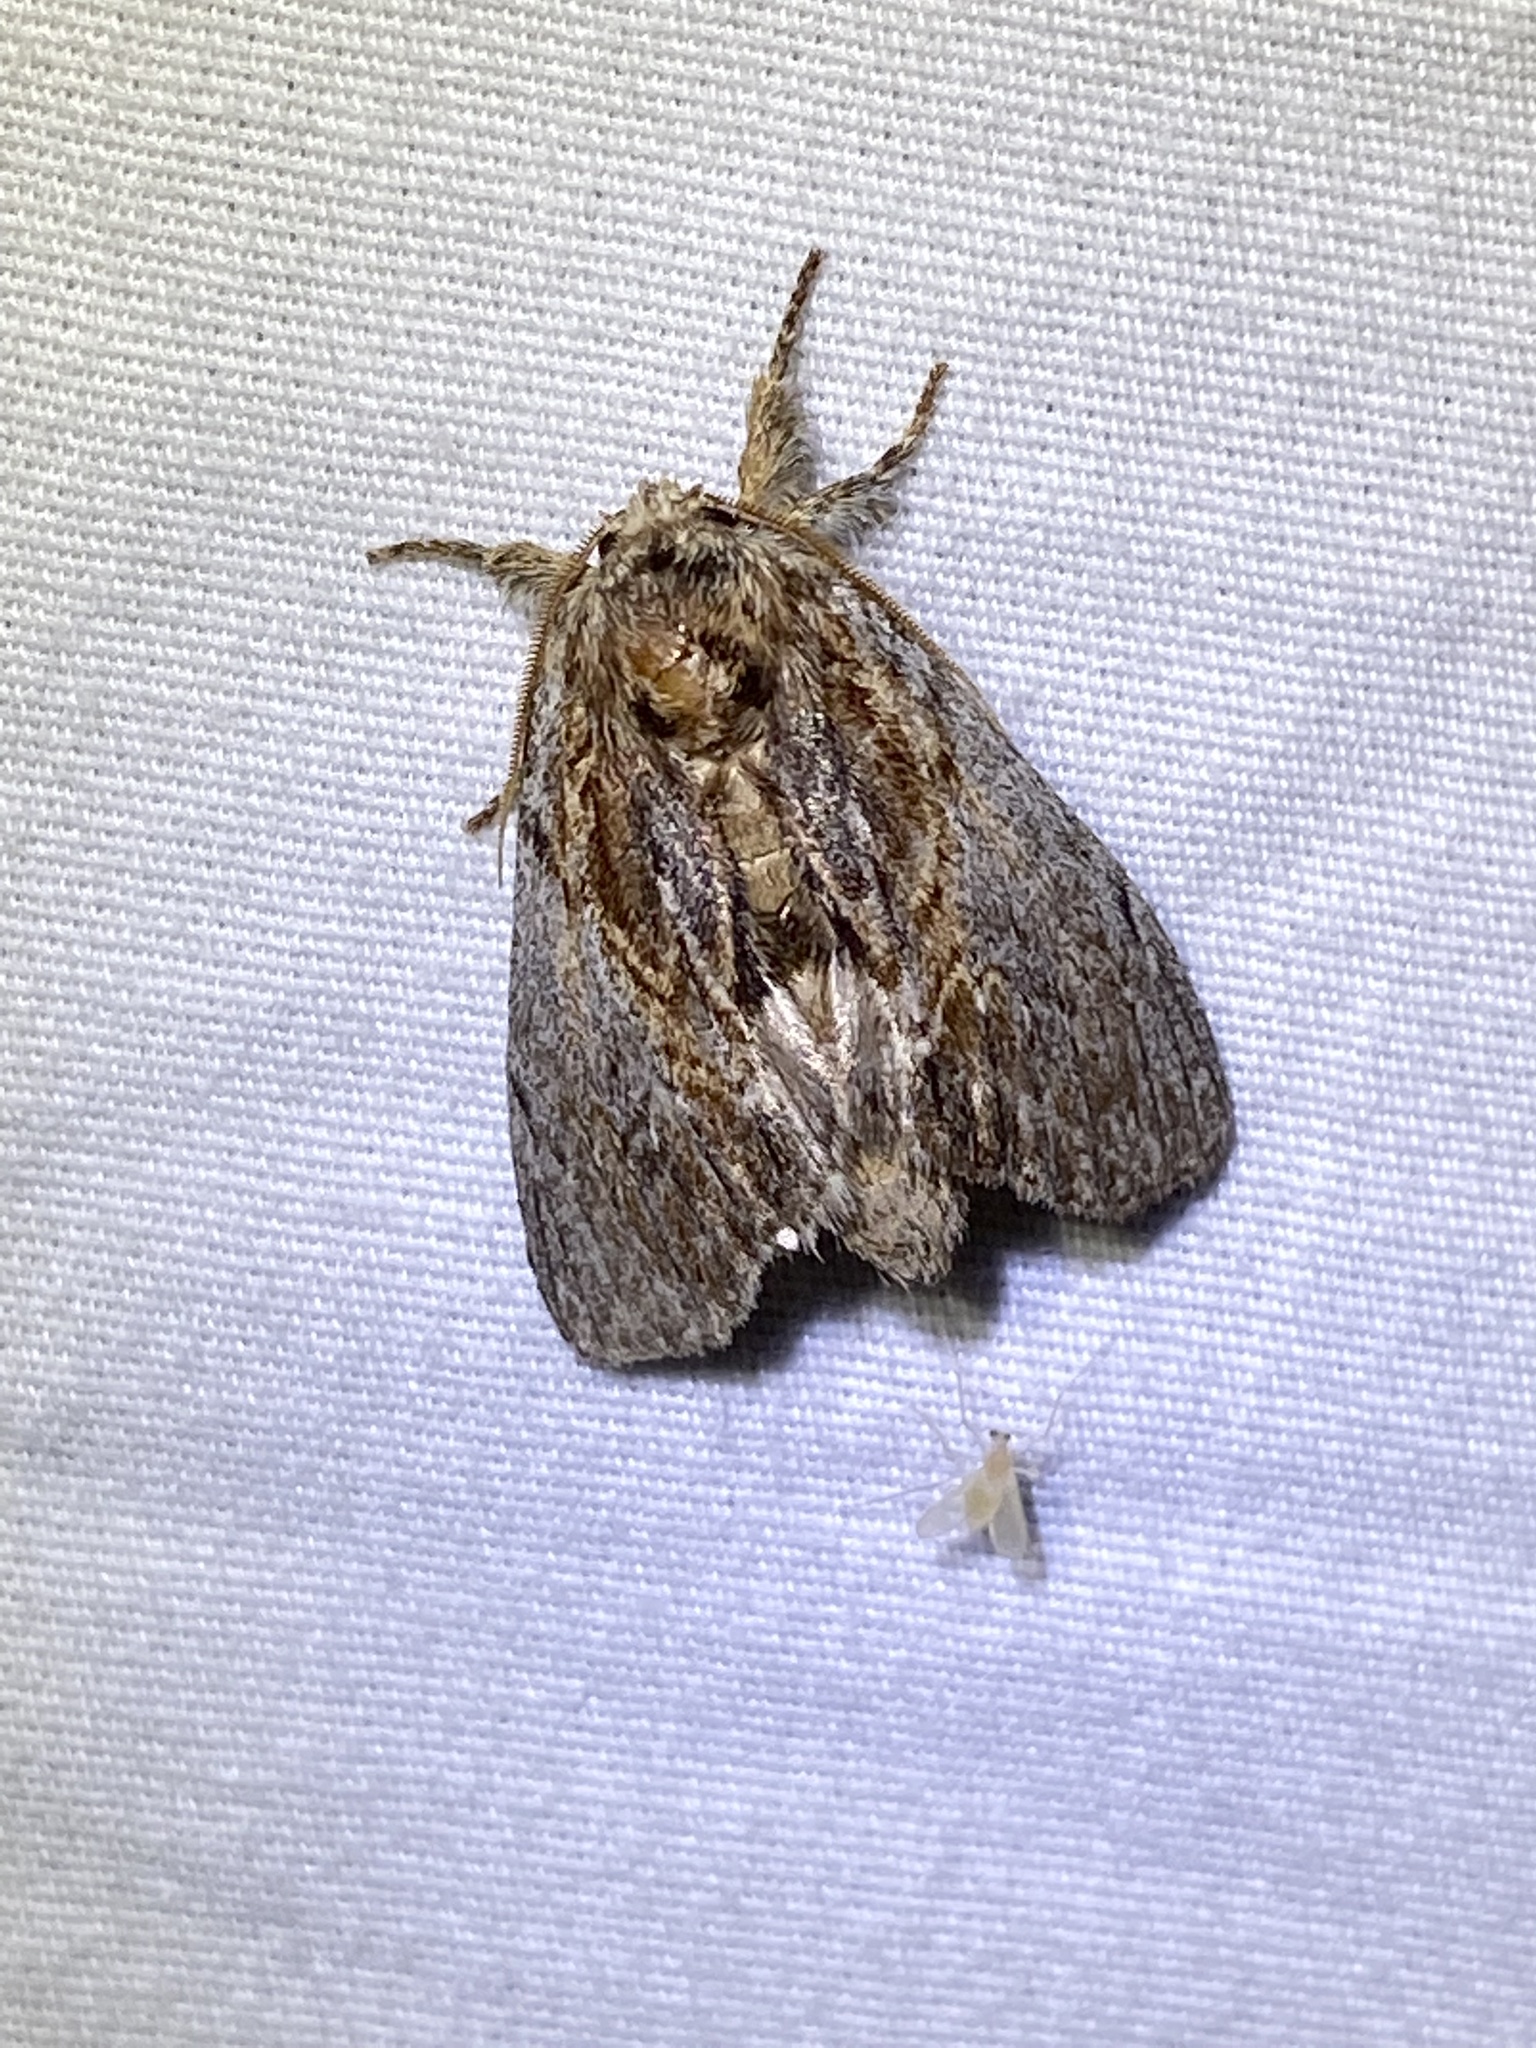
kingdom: Animalia
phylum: Arthropoda
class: Insecta
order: Lepidoptera
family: Notodontidae
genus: Peridea
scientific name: Peridea basitriens
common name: Oval-based prominent
